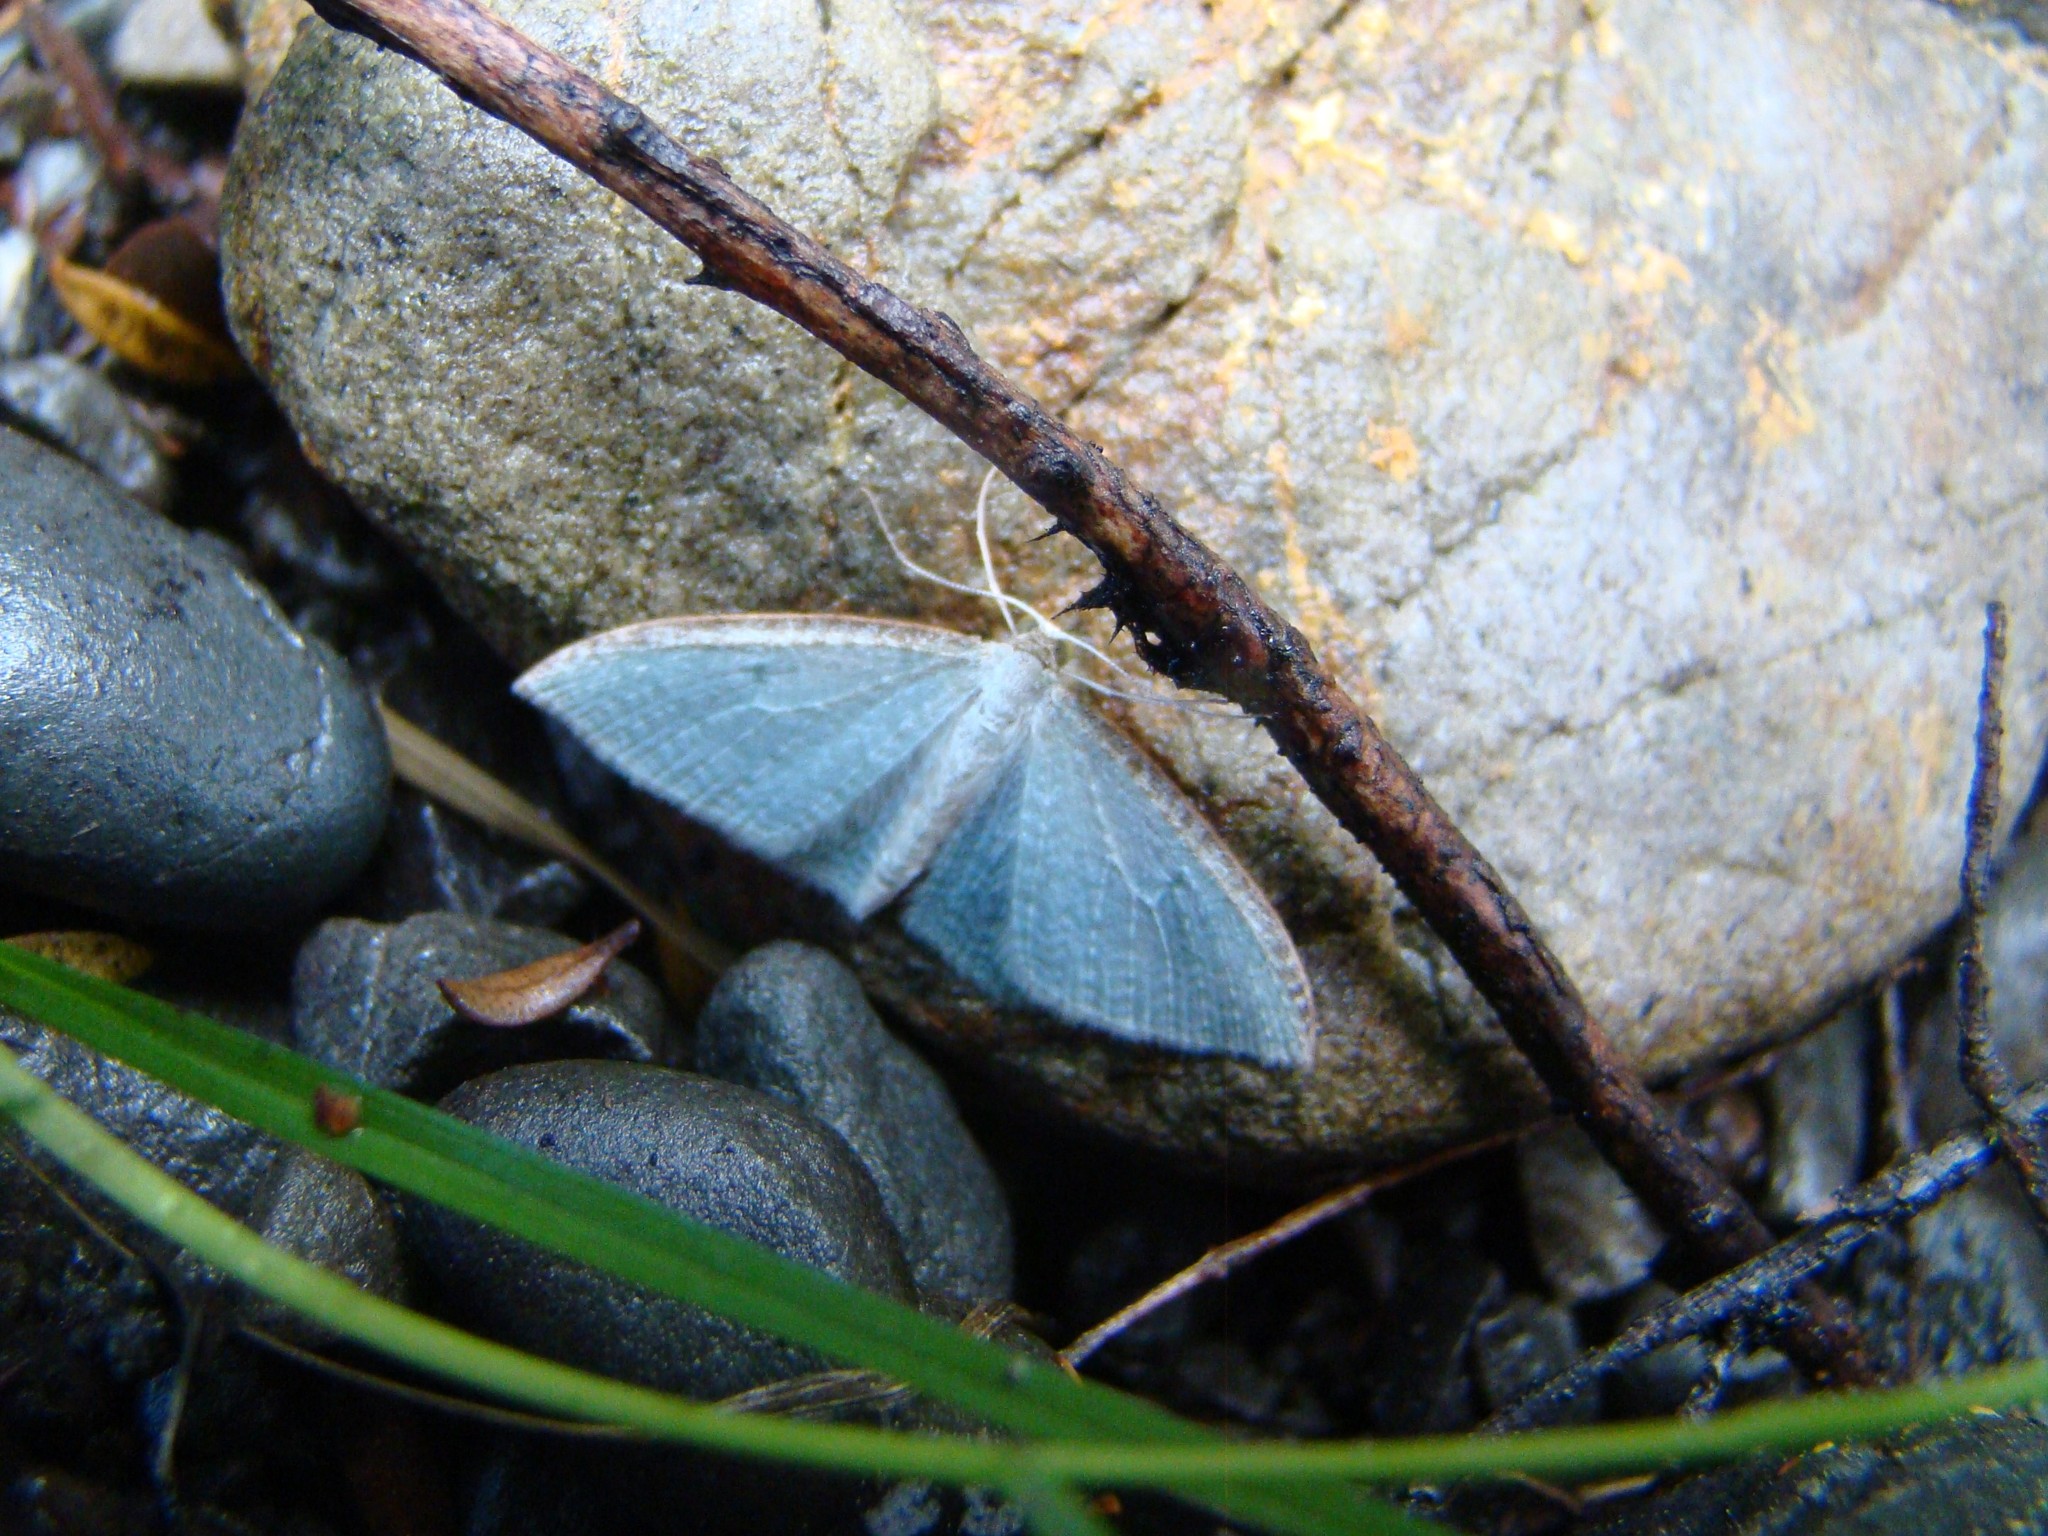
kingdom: Animalia
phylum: Arthropoda
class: Insecta
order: Lepidoptera
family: Geometridae
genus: Poecilasthena
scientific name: Poecilasthena pulchraria
